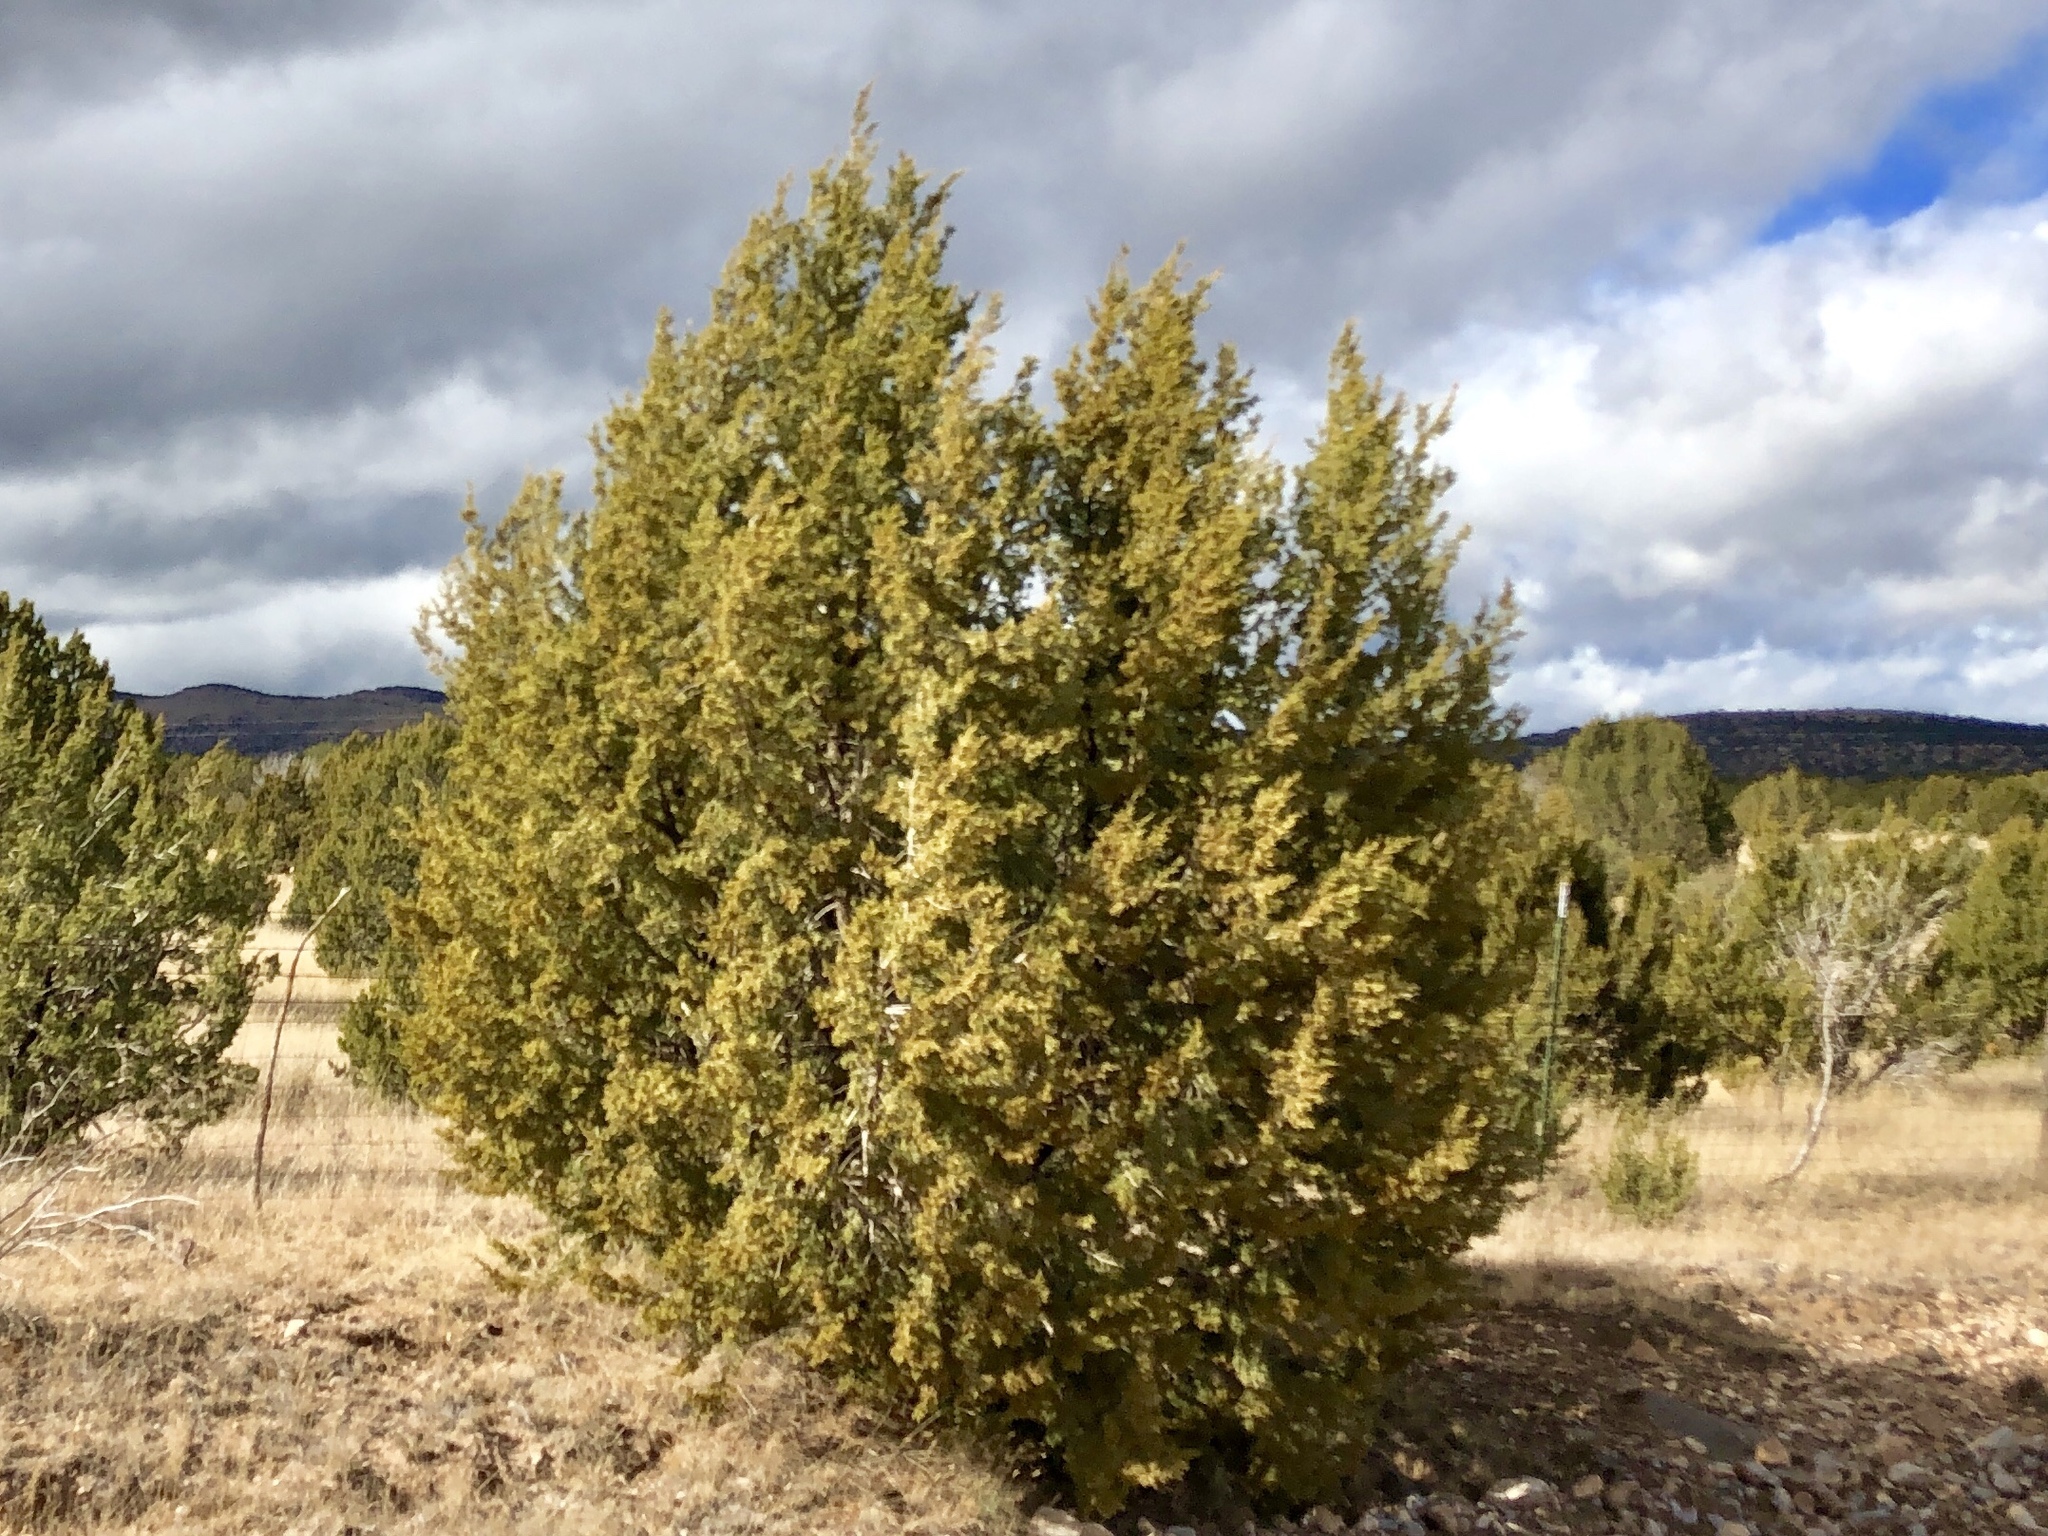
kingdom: Plantae
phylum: Tracheophyta
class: Pinopsida
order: Pinales
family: Cupressaceae
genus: Juniperus
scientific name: Juniperus monosperma
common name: One-seed juniper
